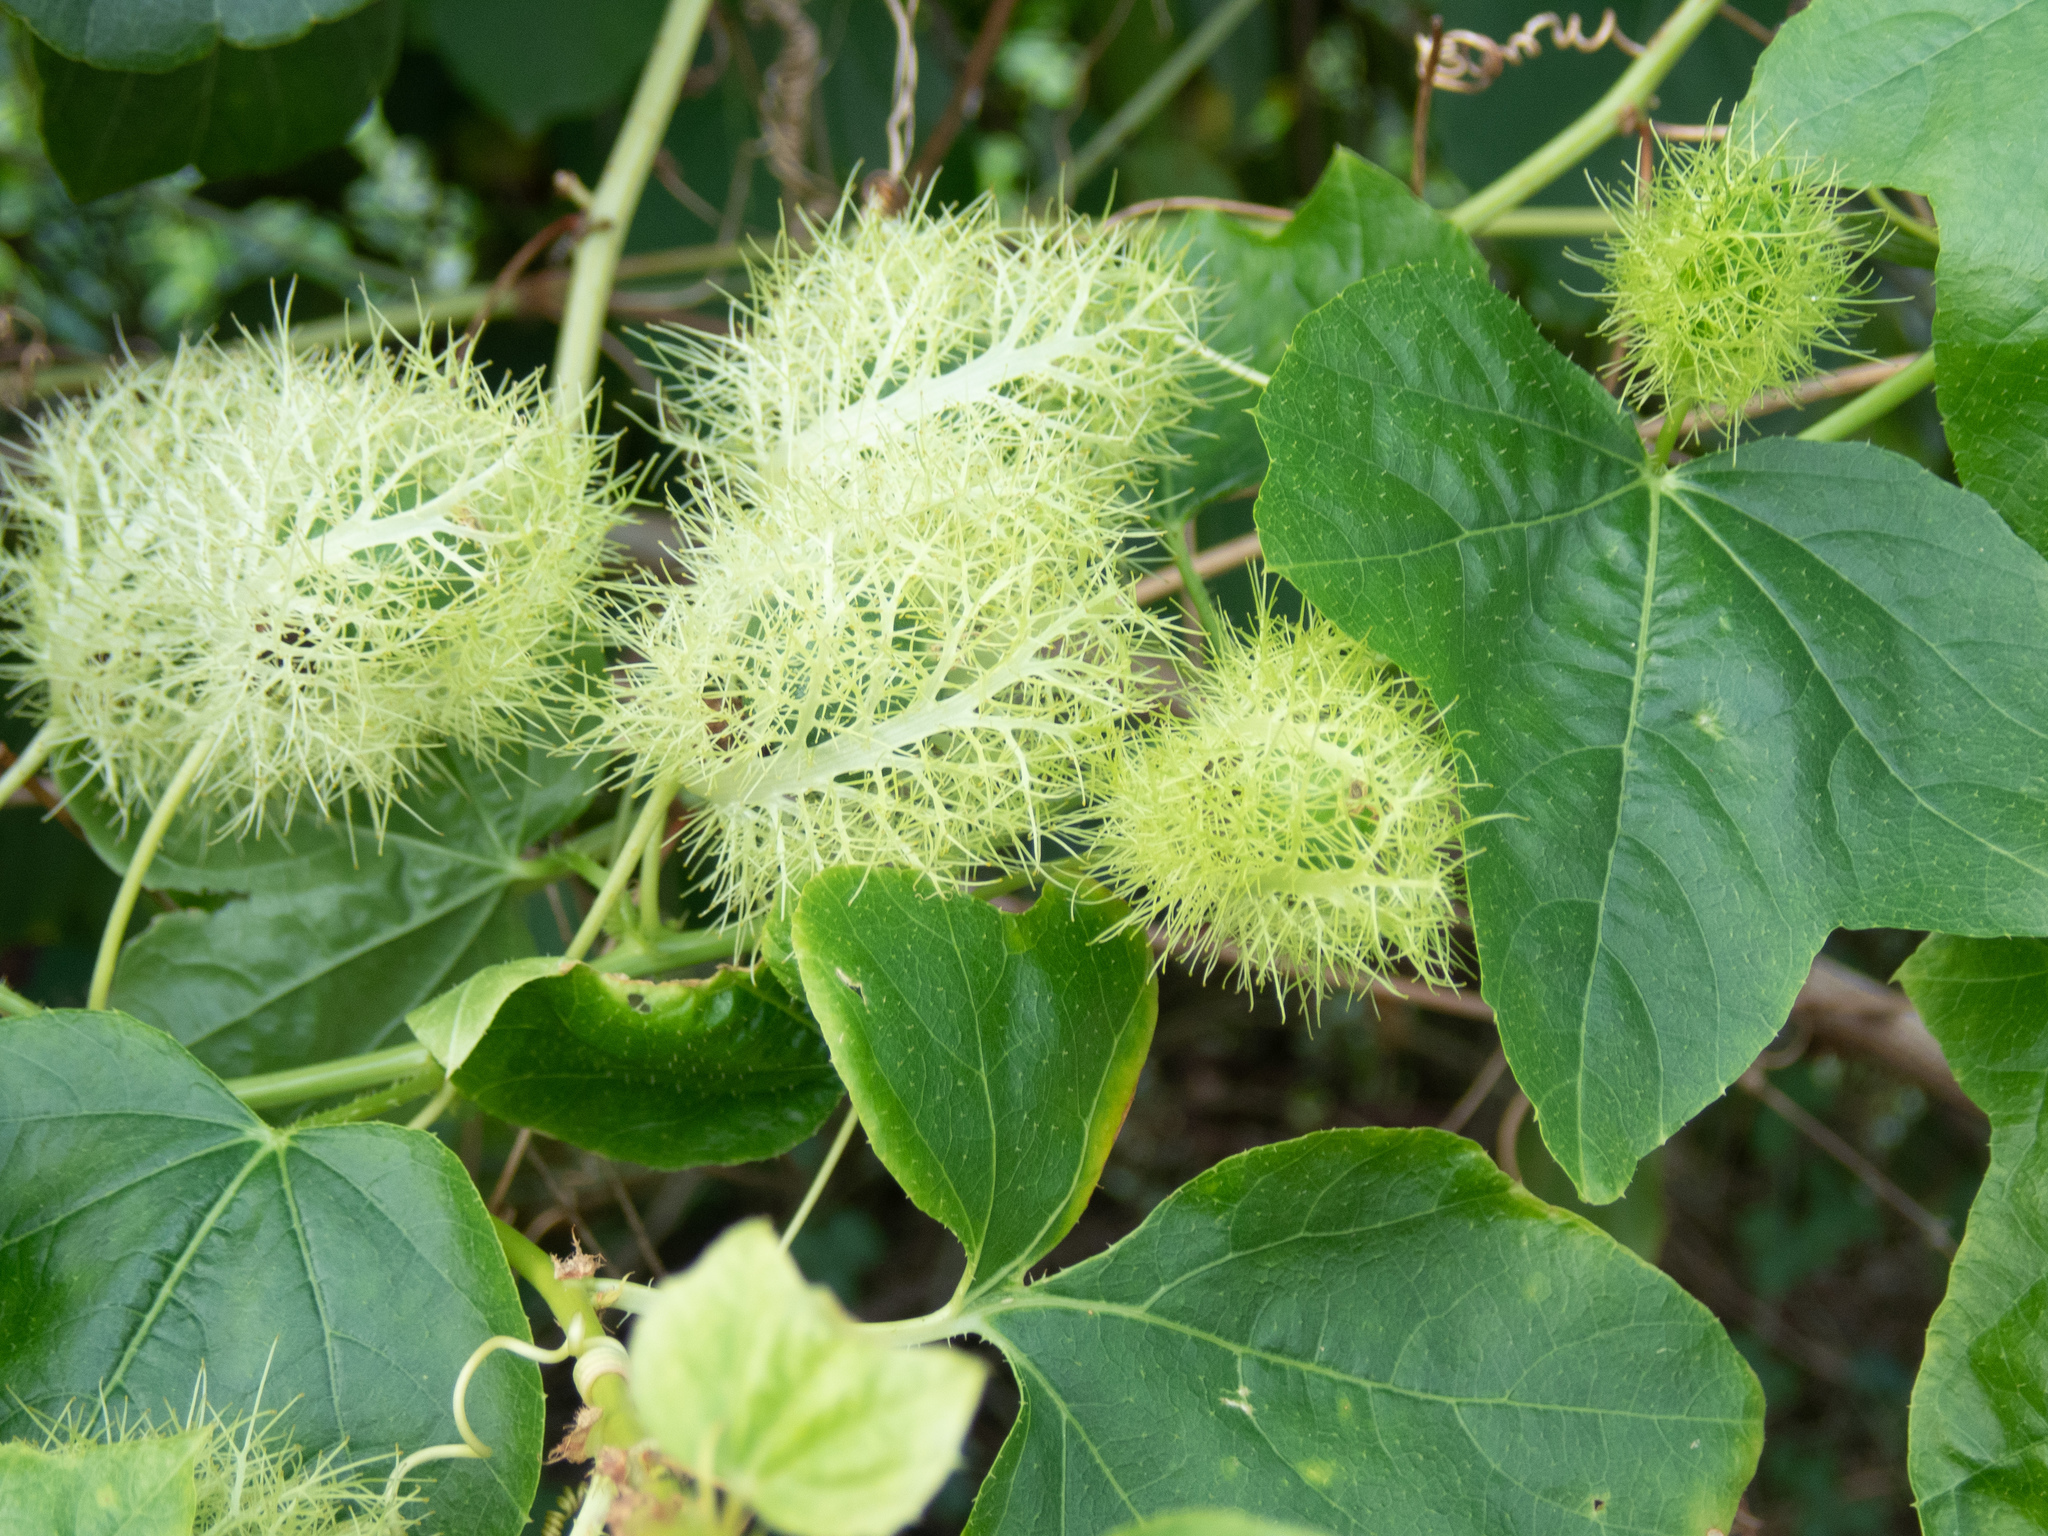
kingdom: Plantae
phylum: Tracheophyta
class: Magnoliopsida
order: Malpighiales
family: Passifloraceae
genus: Passiflora
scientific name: Passiflora foetida
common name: Fetid passionflower
